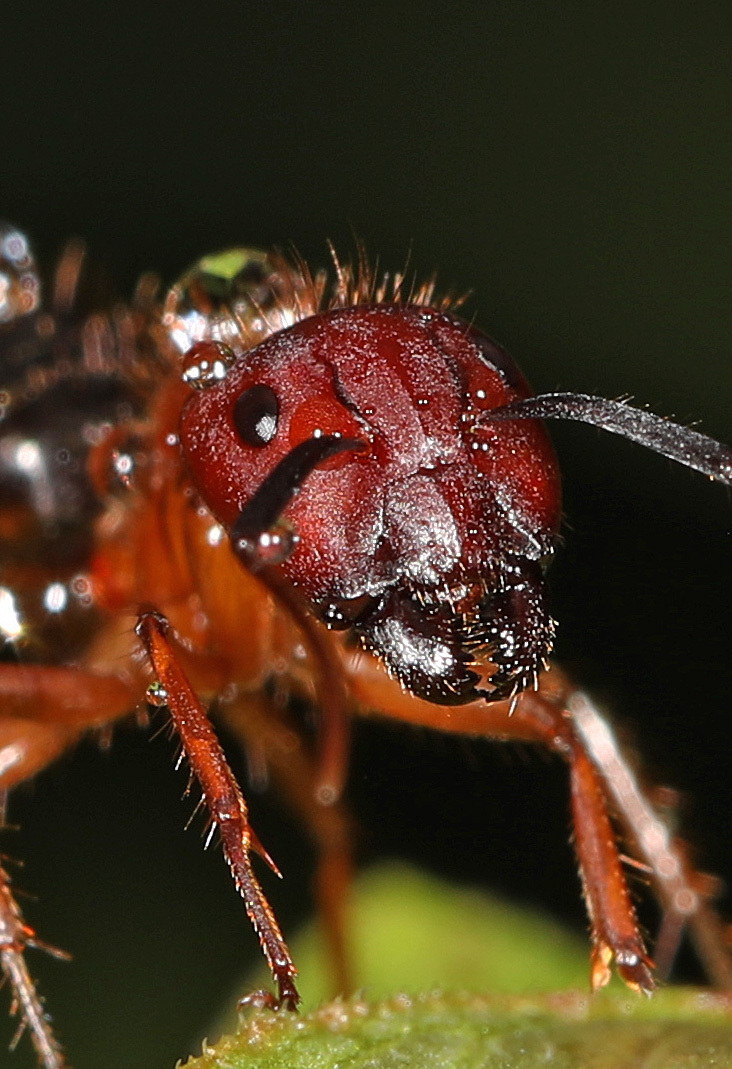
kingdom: Animalia
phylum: Arthropoda
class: Insecta
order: Hymenoptera
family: Formicidae
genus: Camponotus
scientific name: Camponotus floridanus
